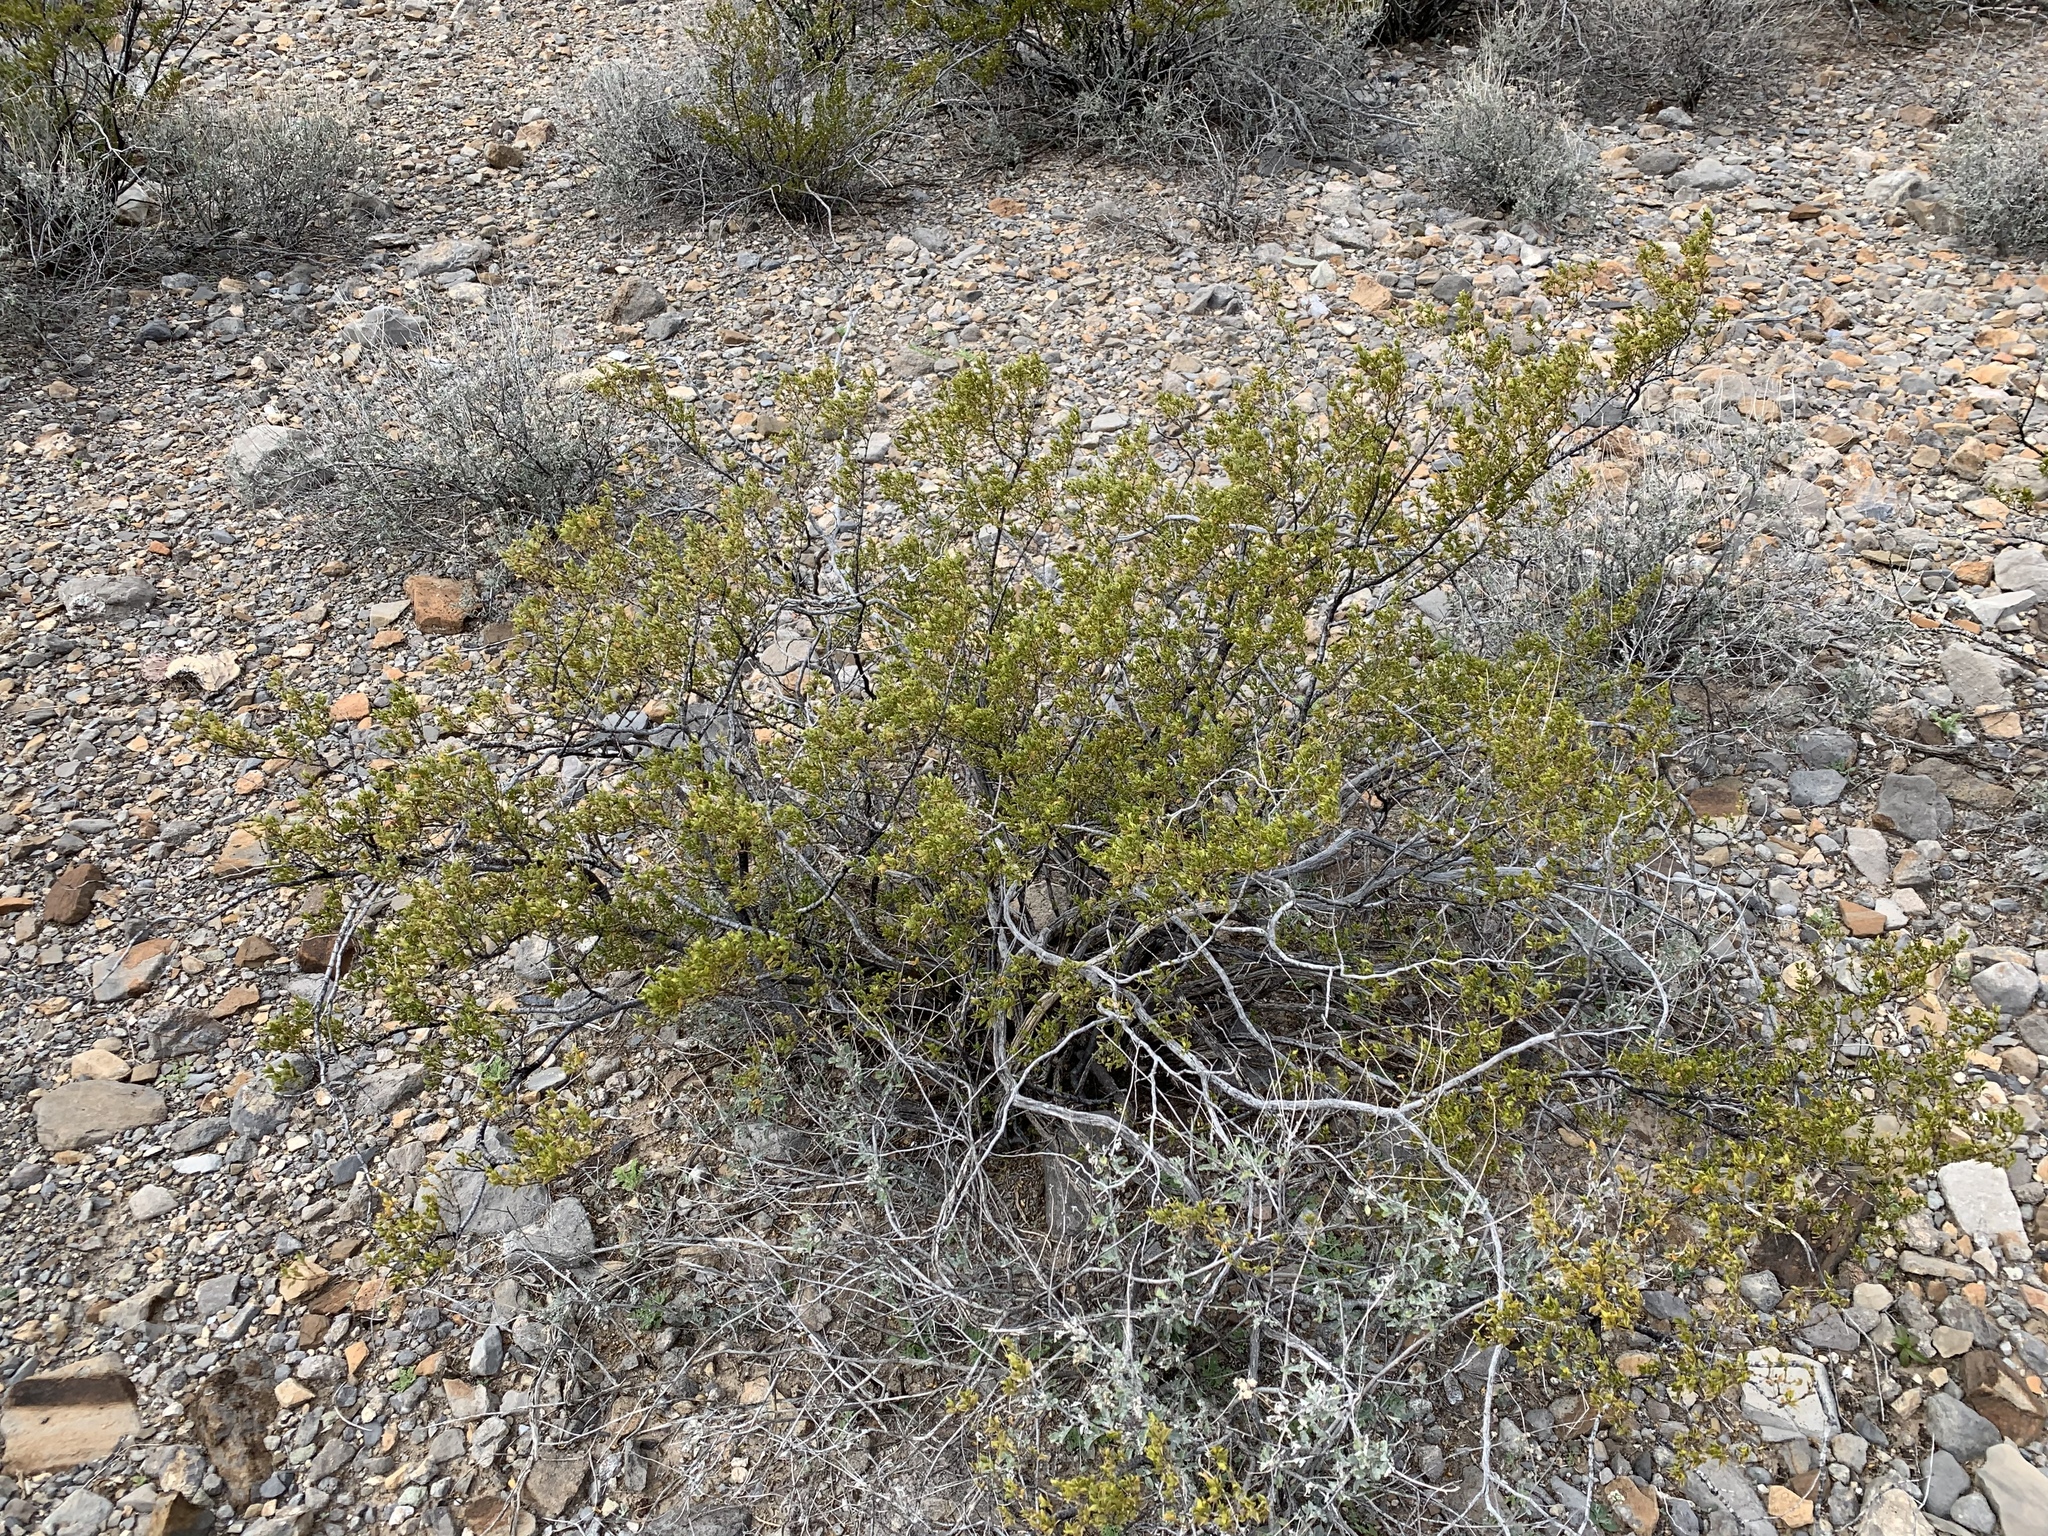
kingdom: Plantae
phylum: Tracheophyta
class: Magnoliopsida
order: Zygophyllales
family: Zygophyllaceae
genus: Larrea
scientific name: Larrea tridentata
